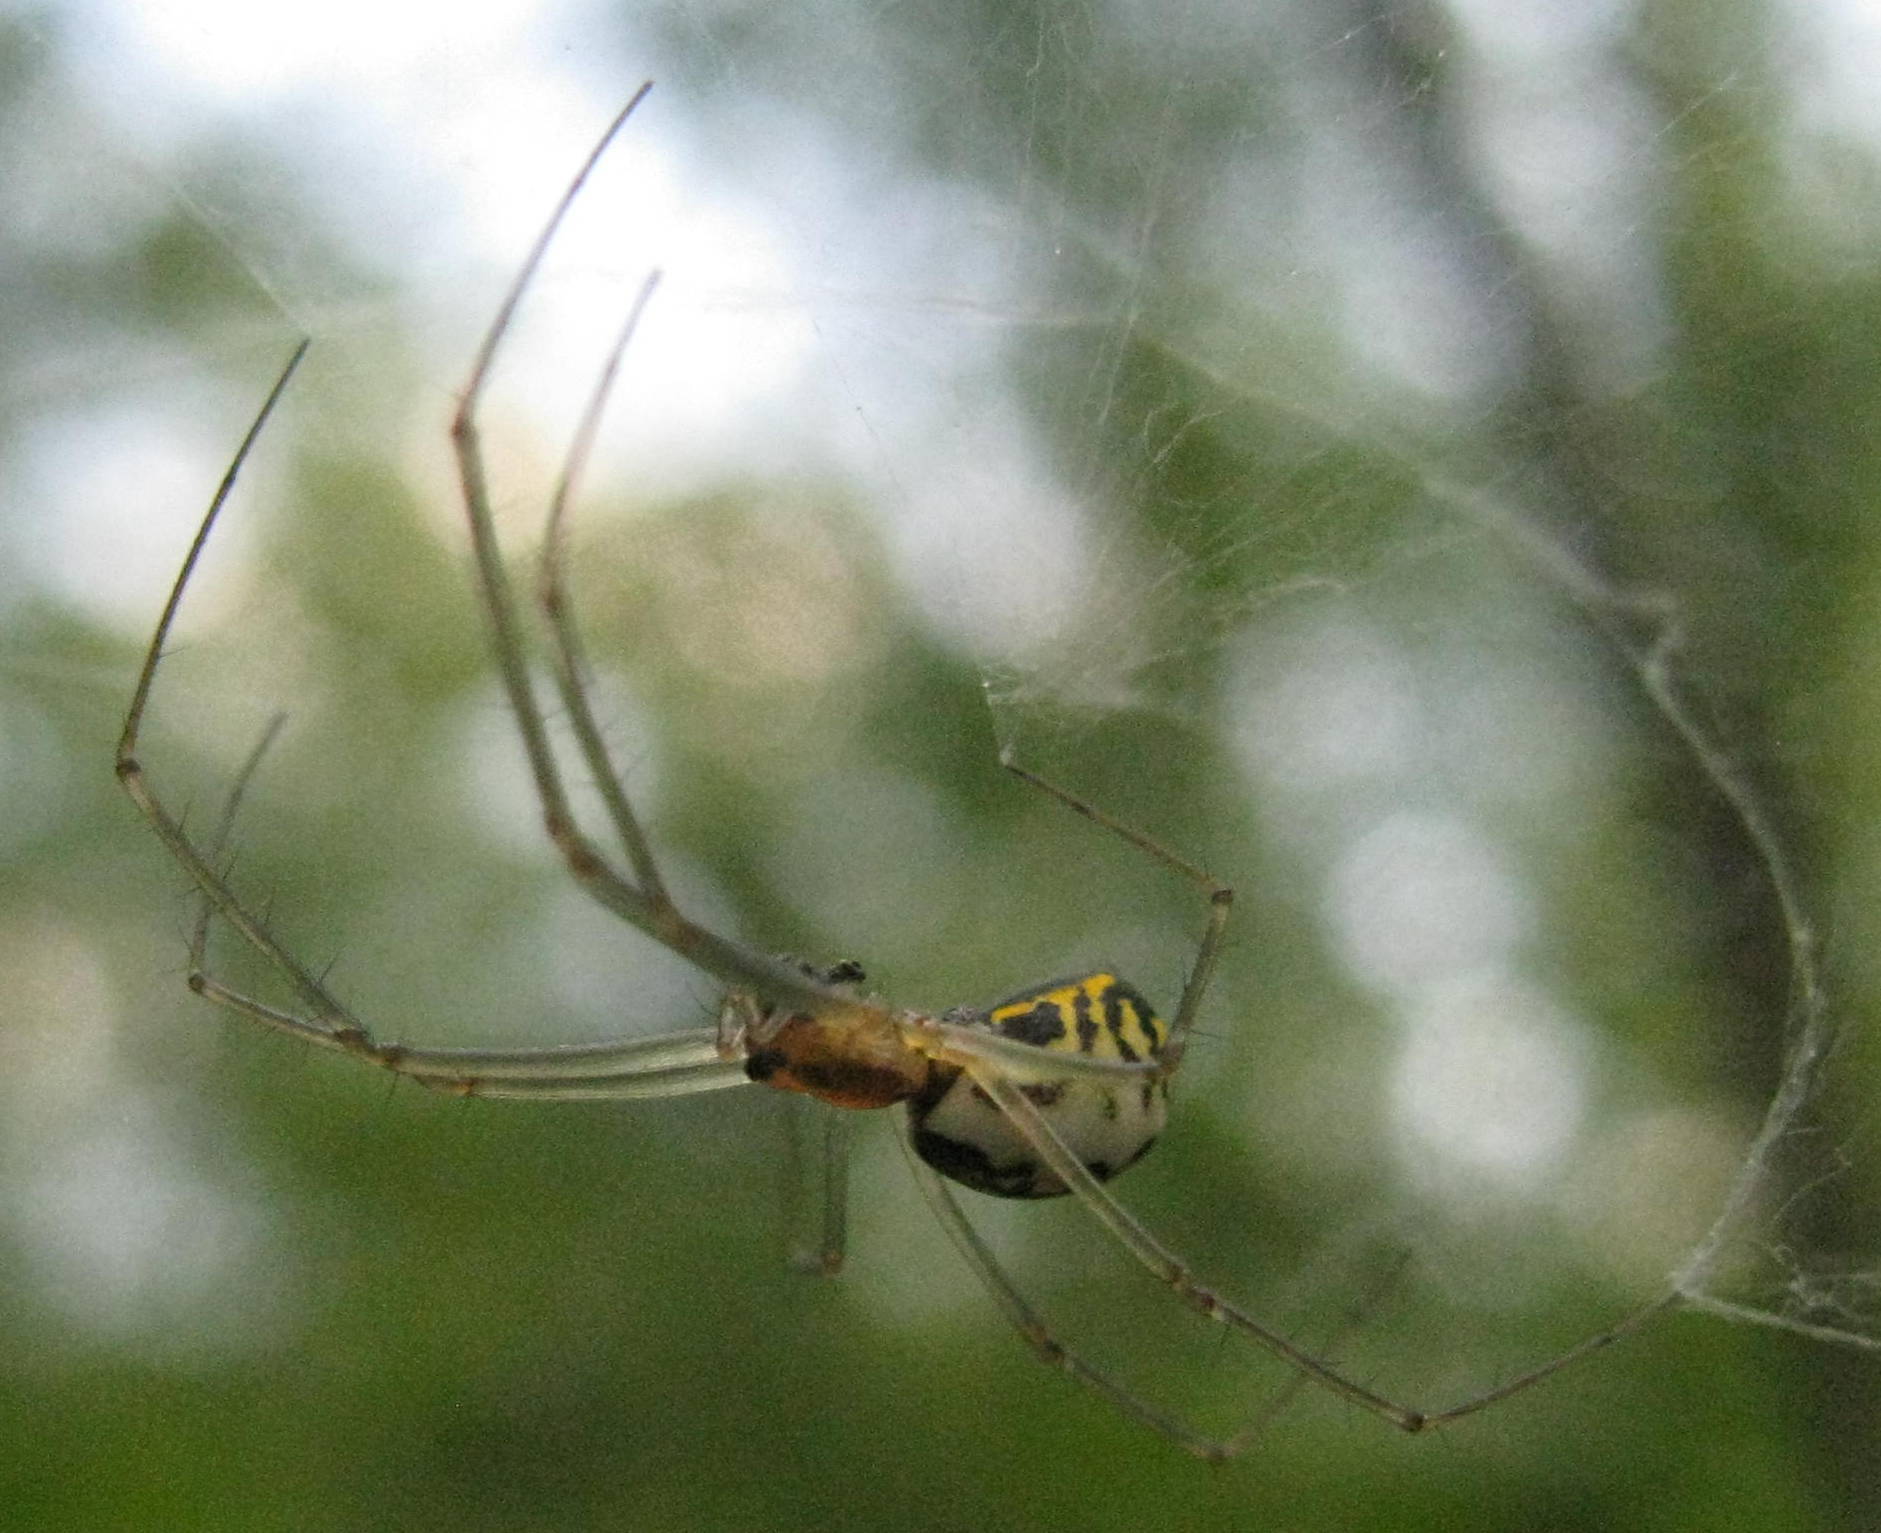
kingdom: Animalia
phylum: Arthropoda
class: Arachnida
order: Araneae
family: Linyphiidae
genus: Neriene
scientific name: Neriene radiata
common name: Filmy dome spider
